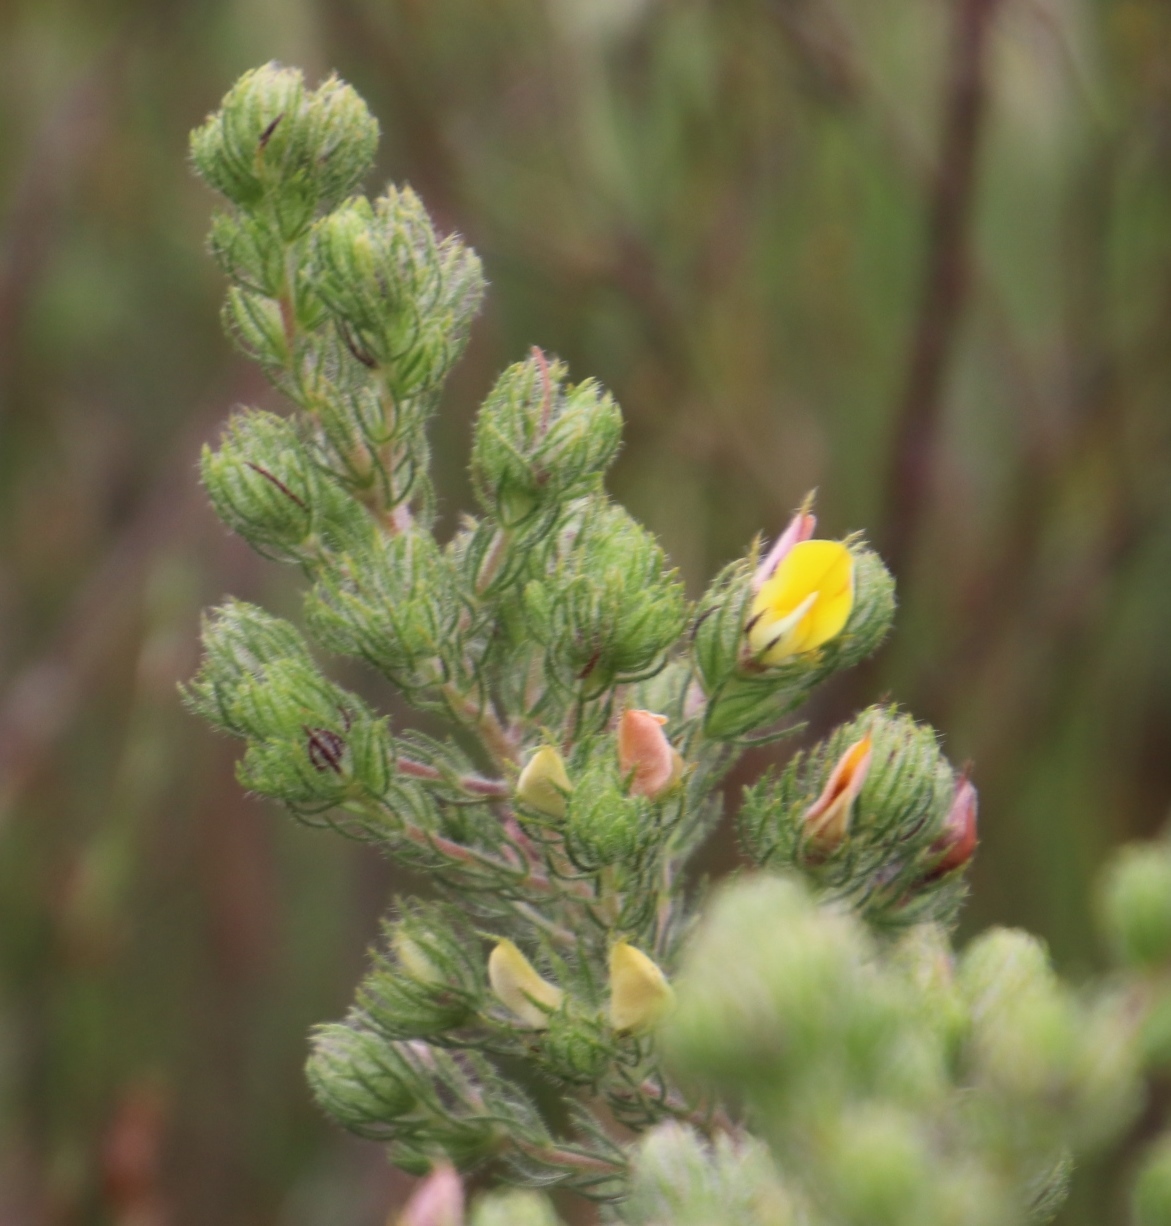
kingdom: Plantae
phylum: Tracheophyta
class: Magnoliopsida
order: Fabales
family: Fabaceae
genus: Aspalathus
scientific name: Aspalathus ciliaris
